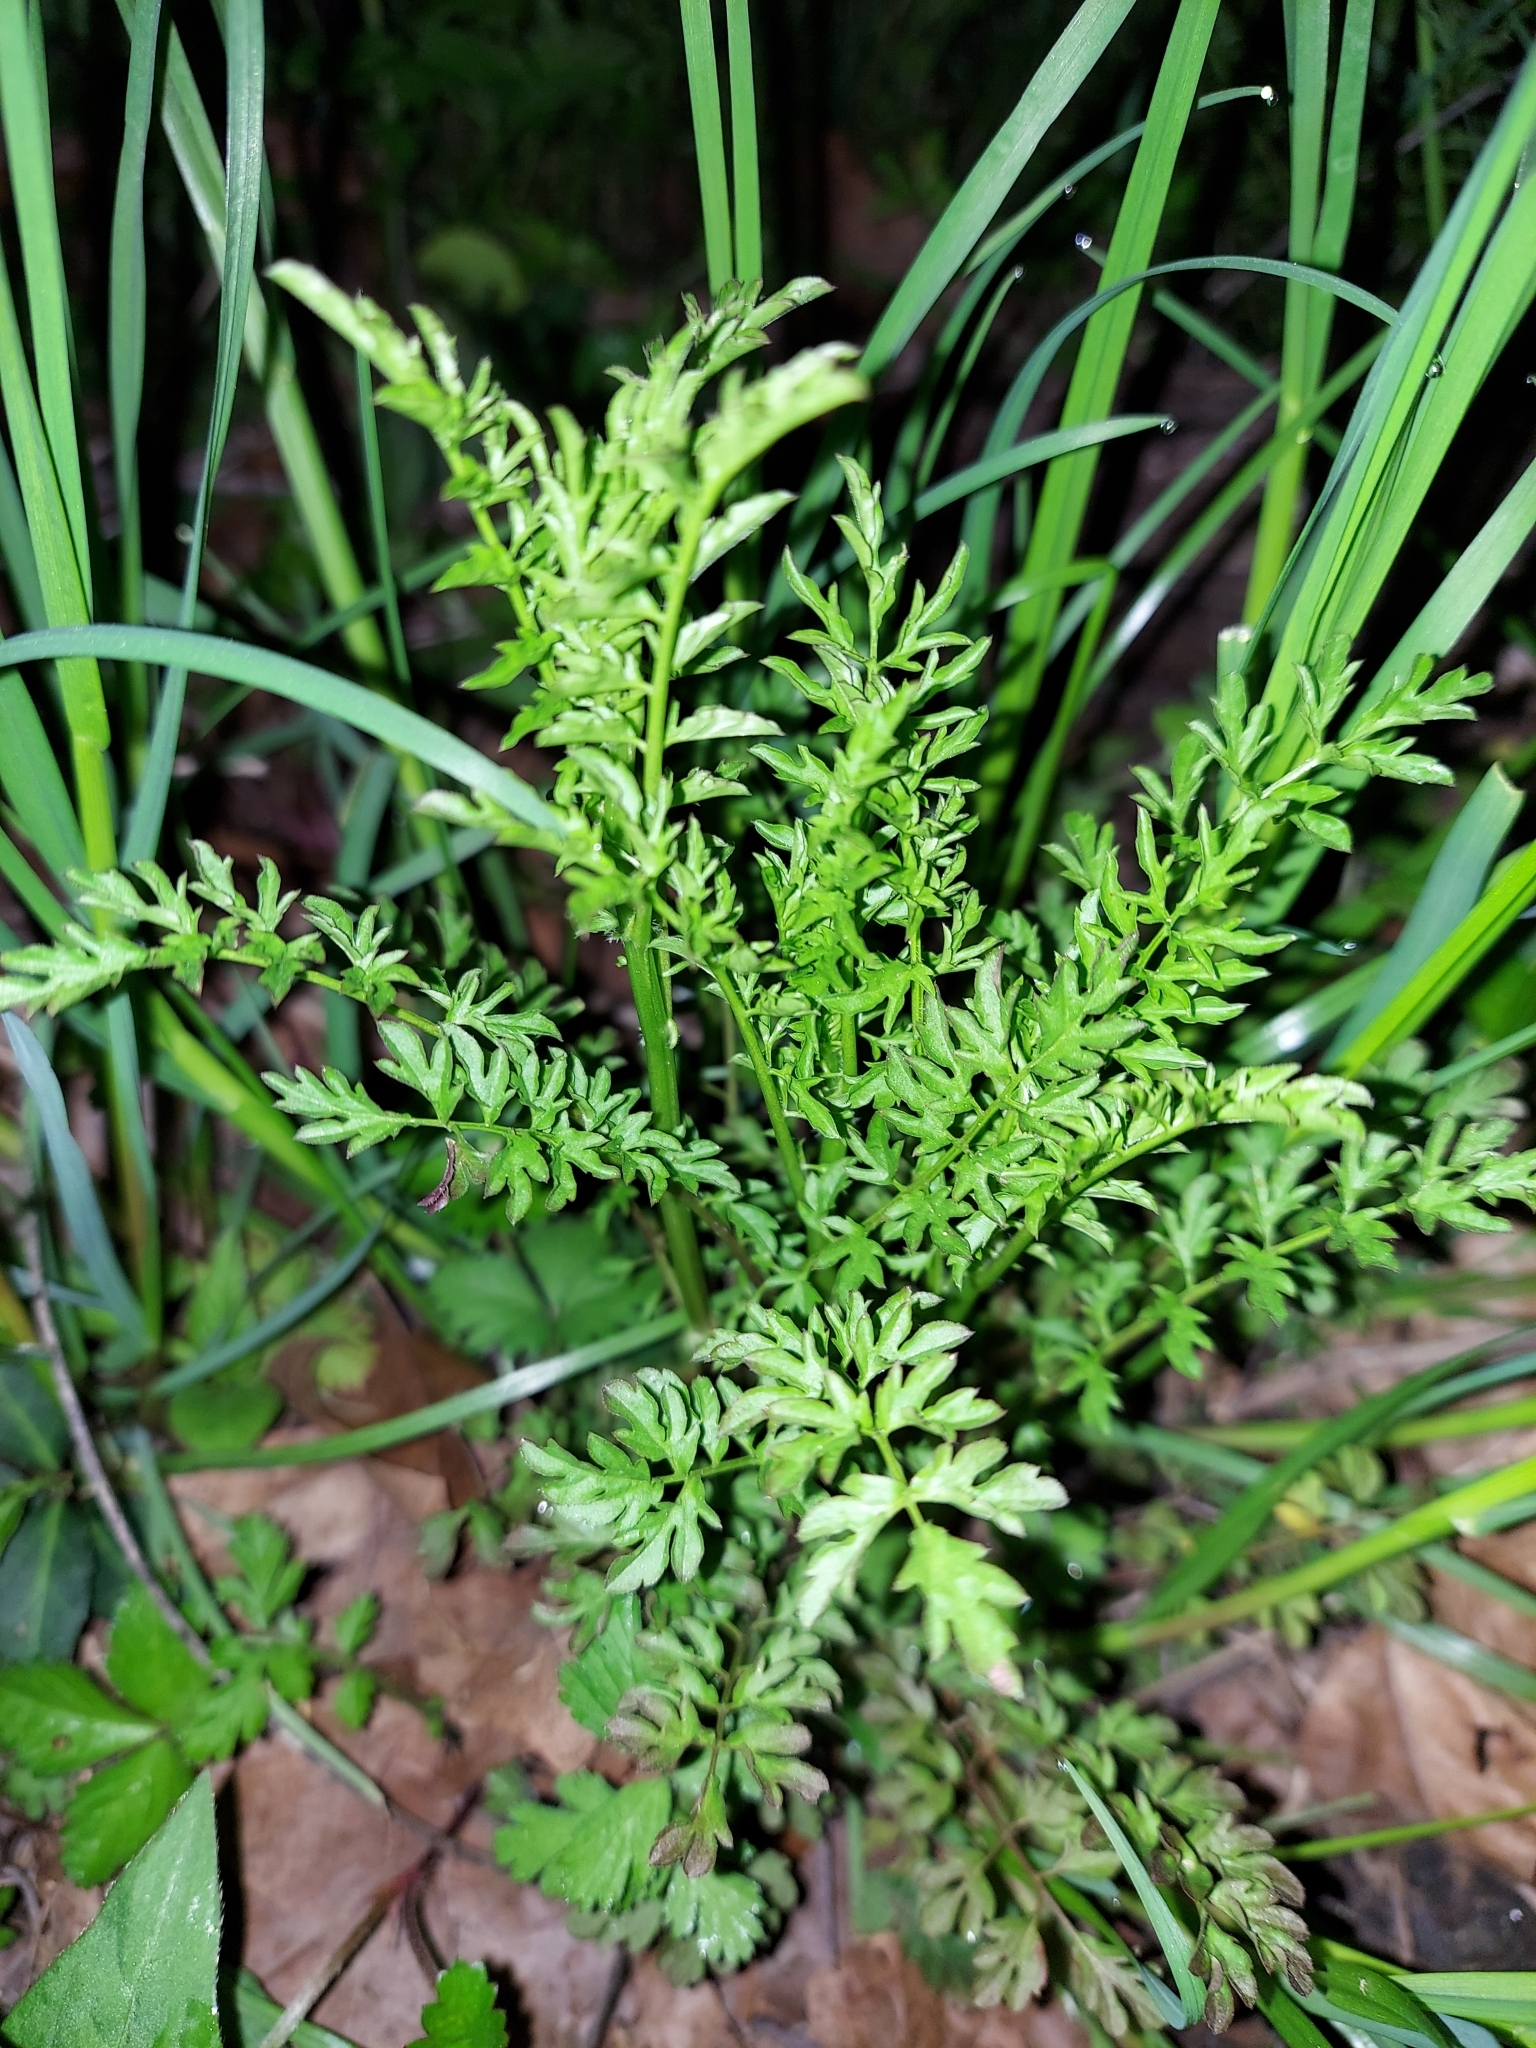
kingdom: Plantae
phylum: Tracheophyta
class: Magnoliopsida
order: Brassicales
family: Brassicaceae
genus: Cardamine
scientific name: Cardamine impatiens
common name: Narrow-leaved bitter-cress
